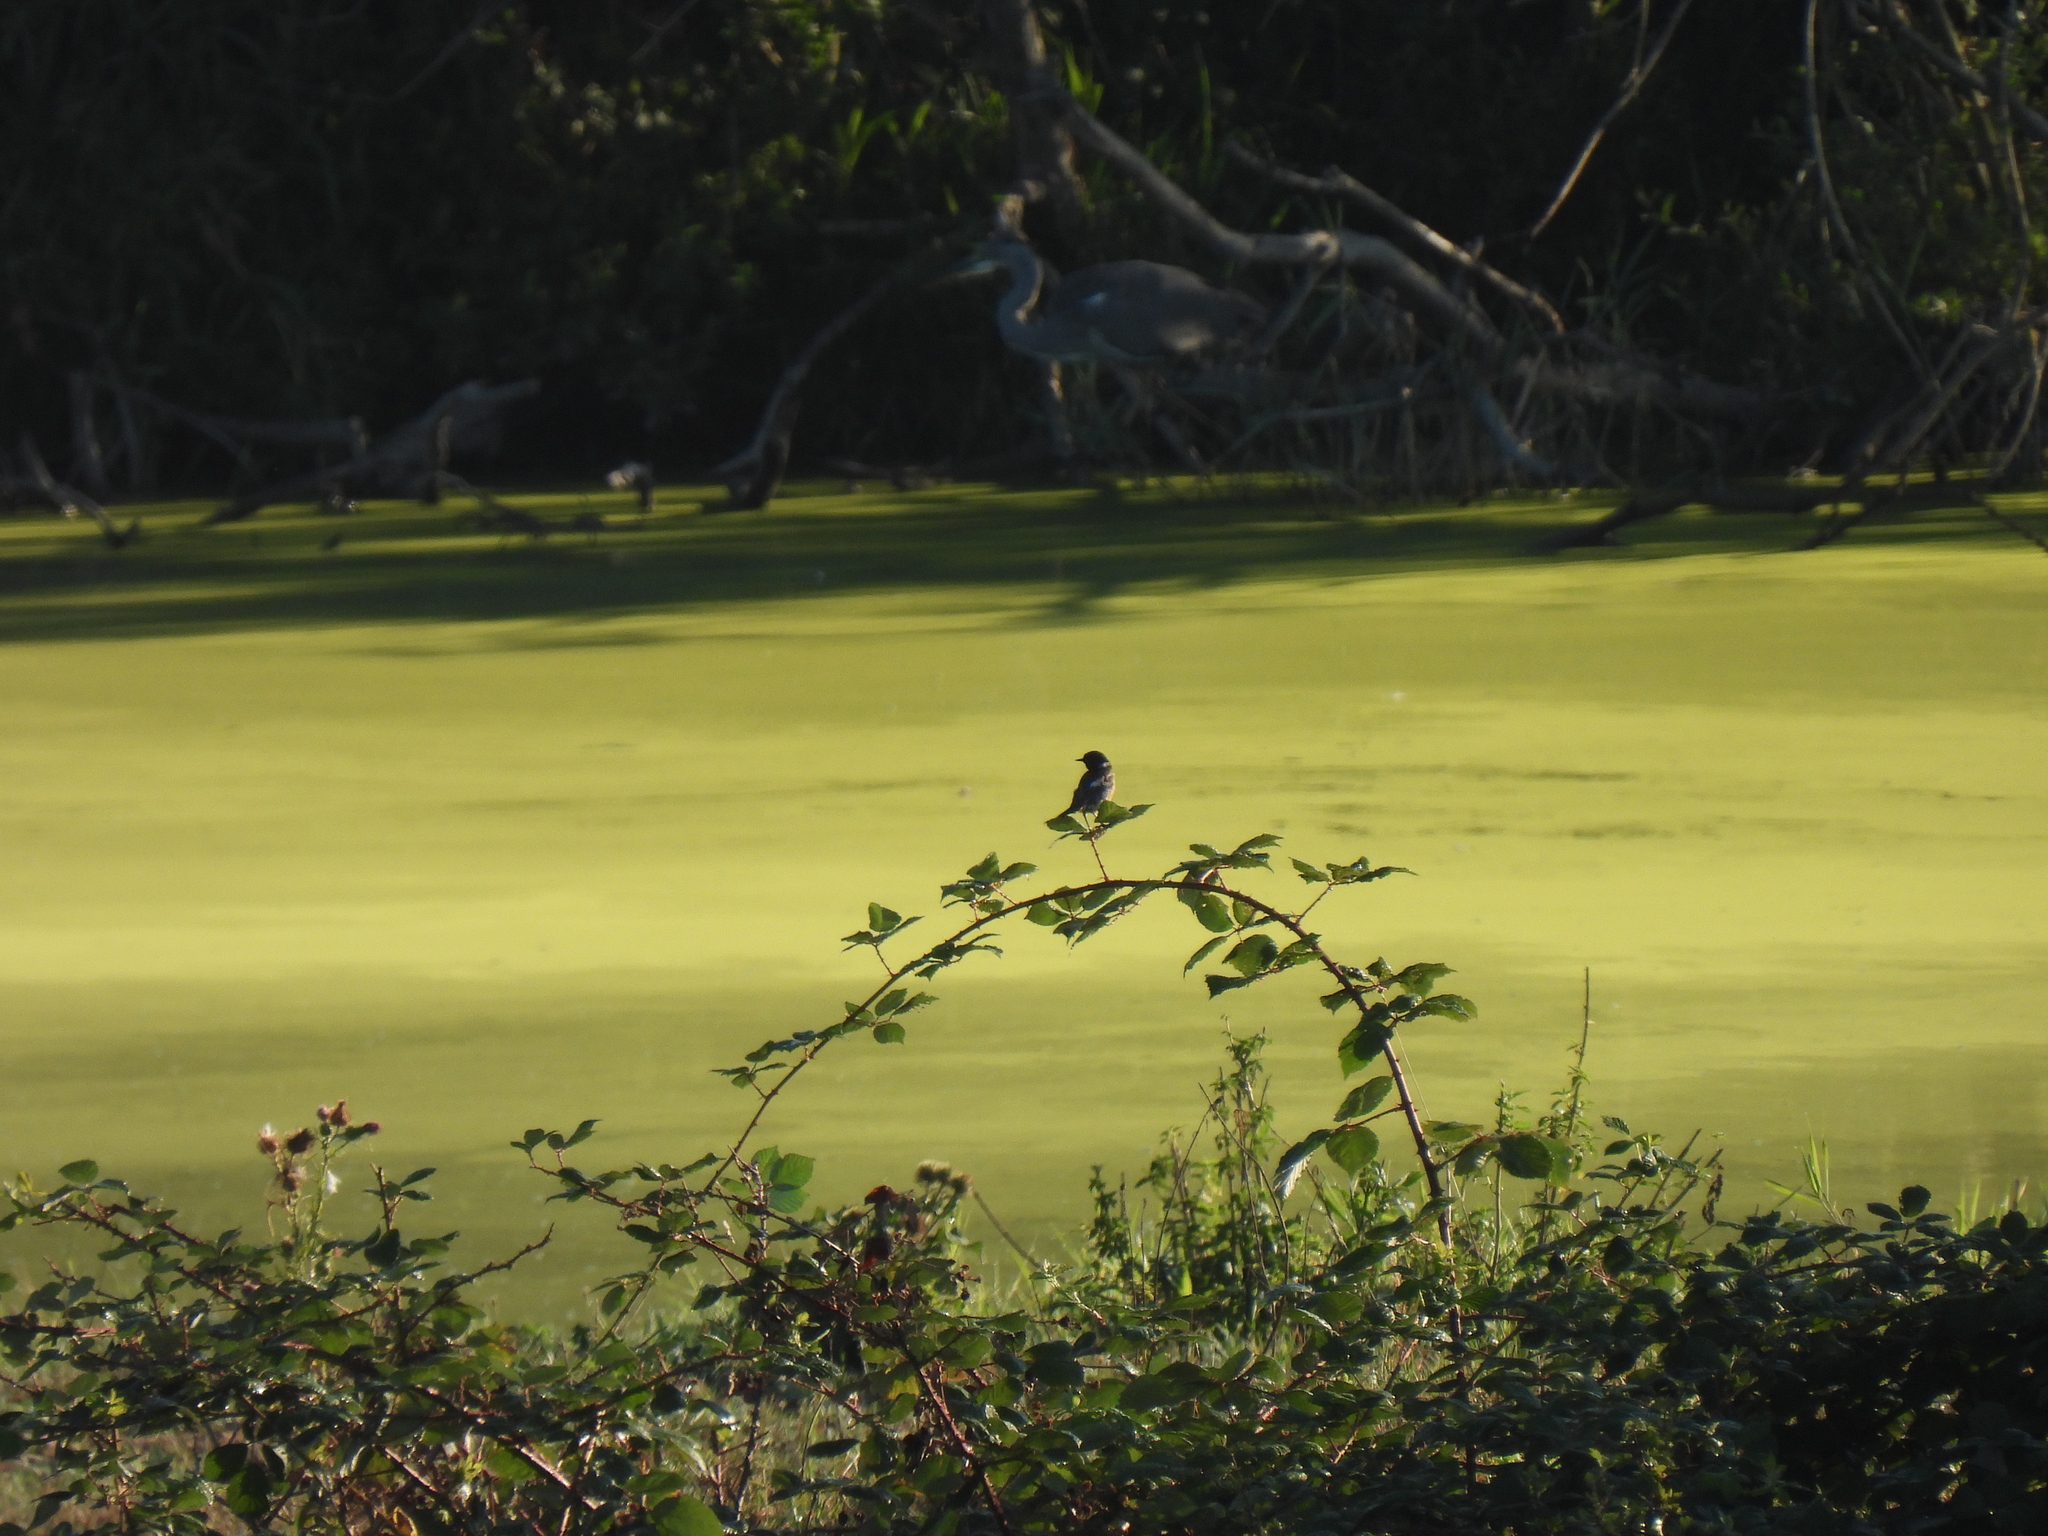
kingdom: Animalia
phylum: Chordata
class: Aves
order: Passeriformes
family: Muscicapidae
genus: Saxicola
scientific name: Saxicola rubicola
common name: European stonechat
